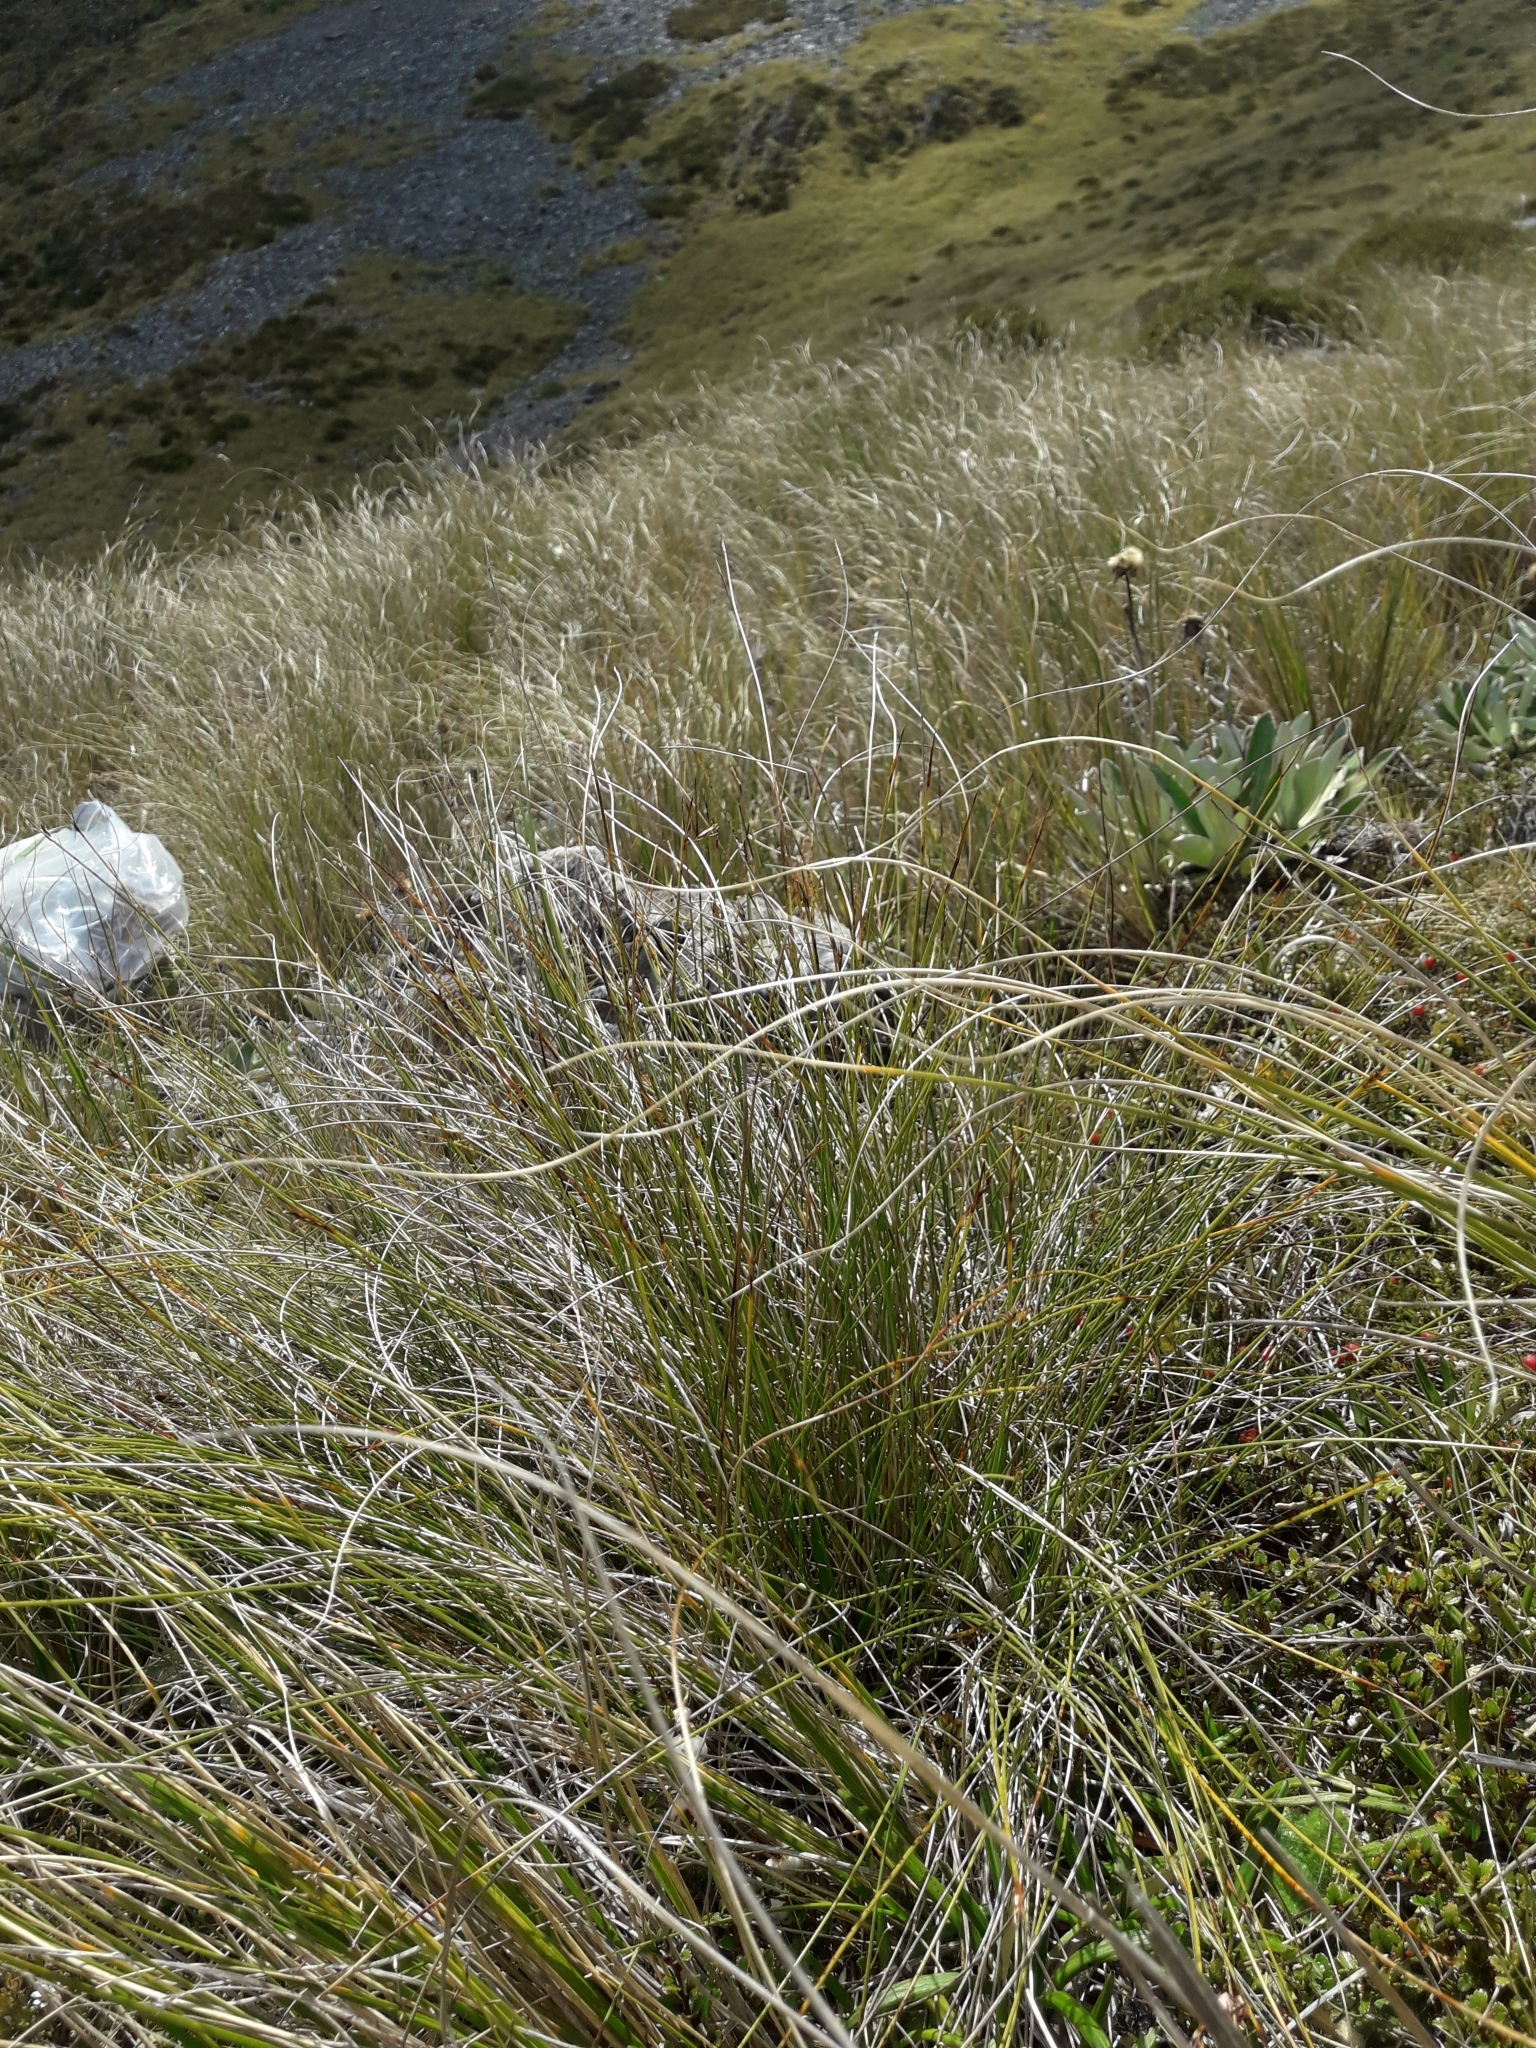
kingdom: Plantae
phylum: Tracheophyta
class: Liliopsida
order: Poales
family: Cyperaceae
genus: Schoenus
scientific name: Schoenus pauciflorus
